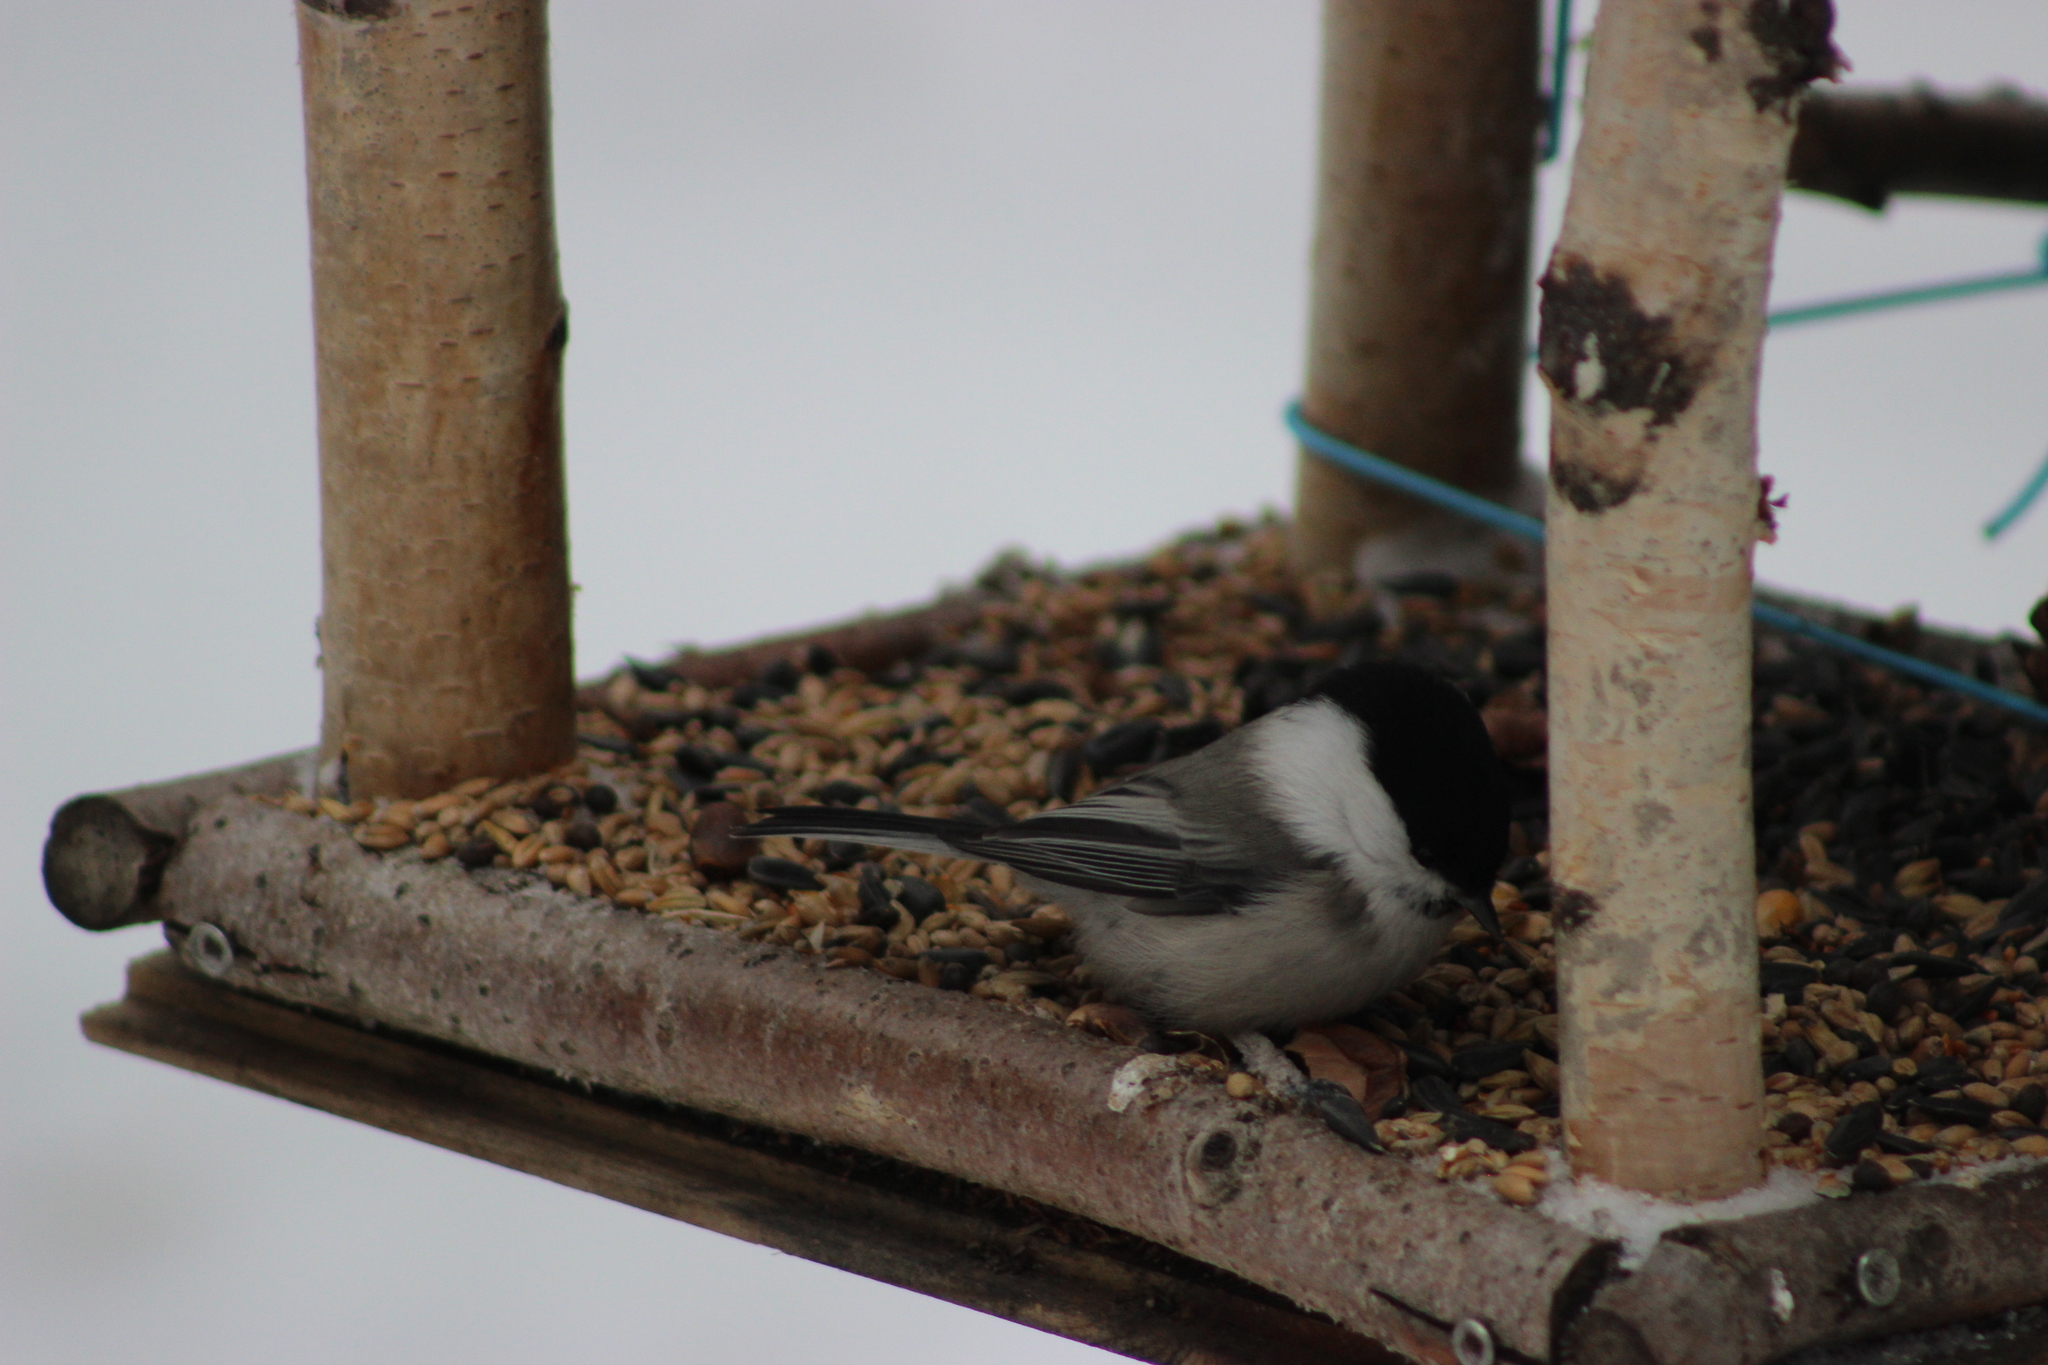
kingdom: Animalia
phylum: Chordata
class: Aves
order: Passeriformes
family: Paridae
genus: Poecile
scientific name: Poecile montanus
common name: Willow tit
